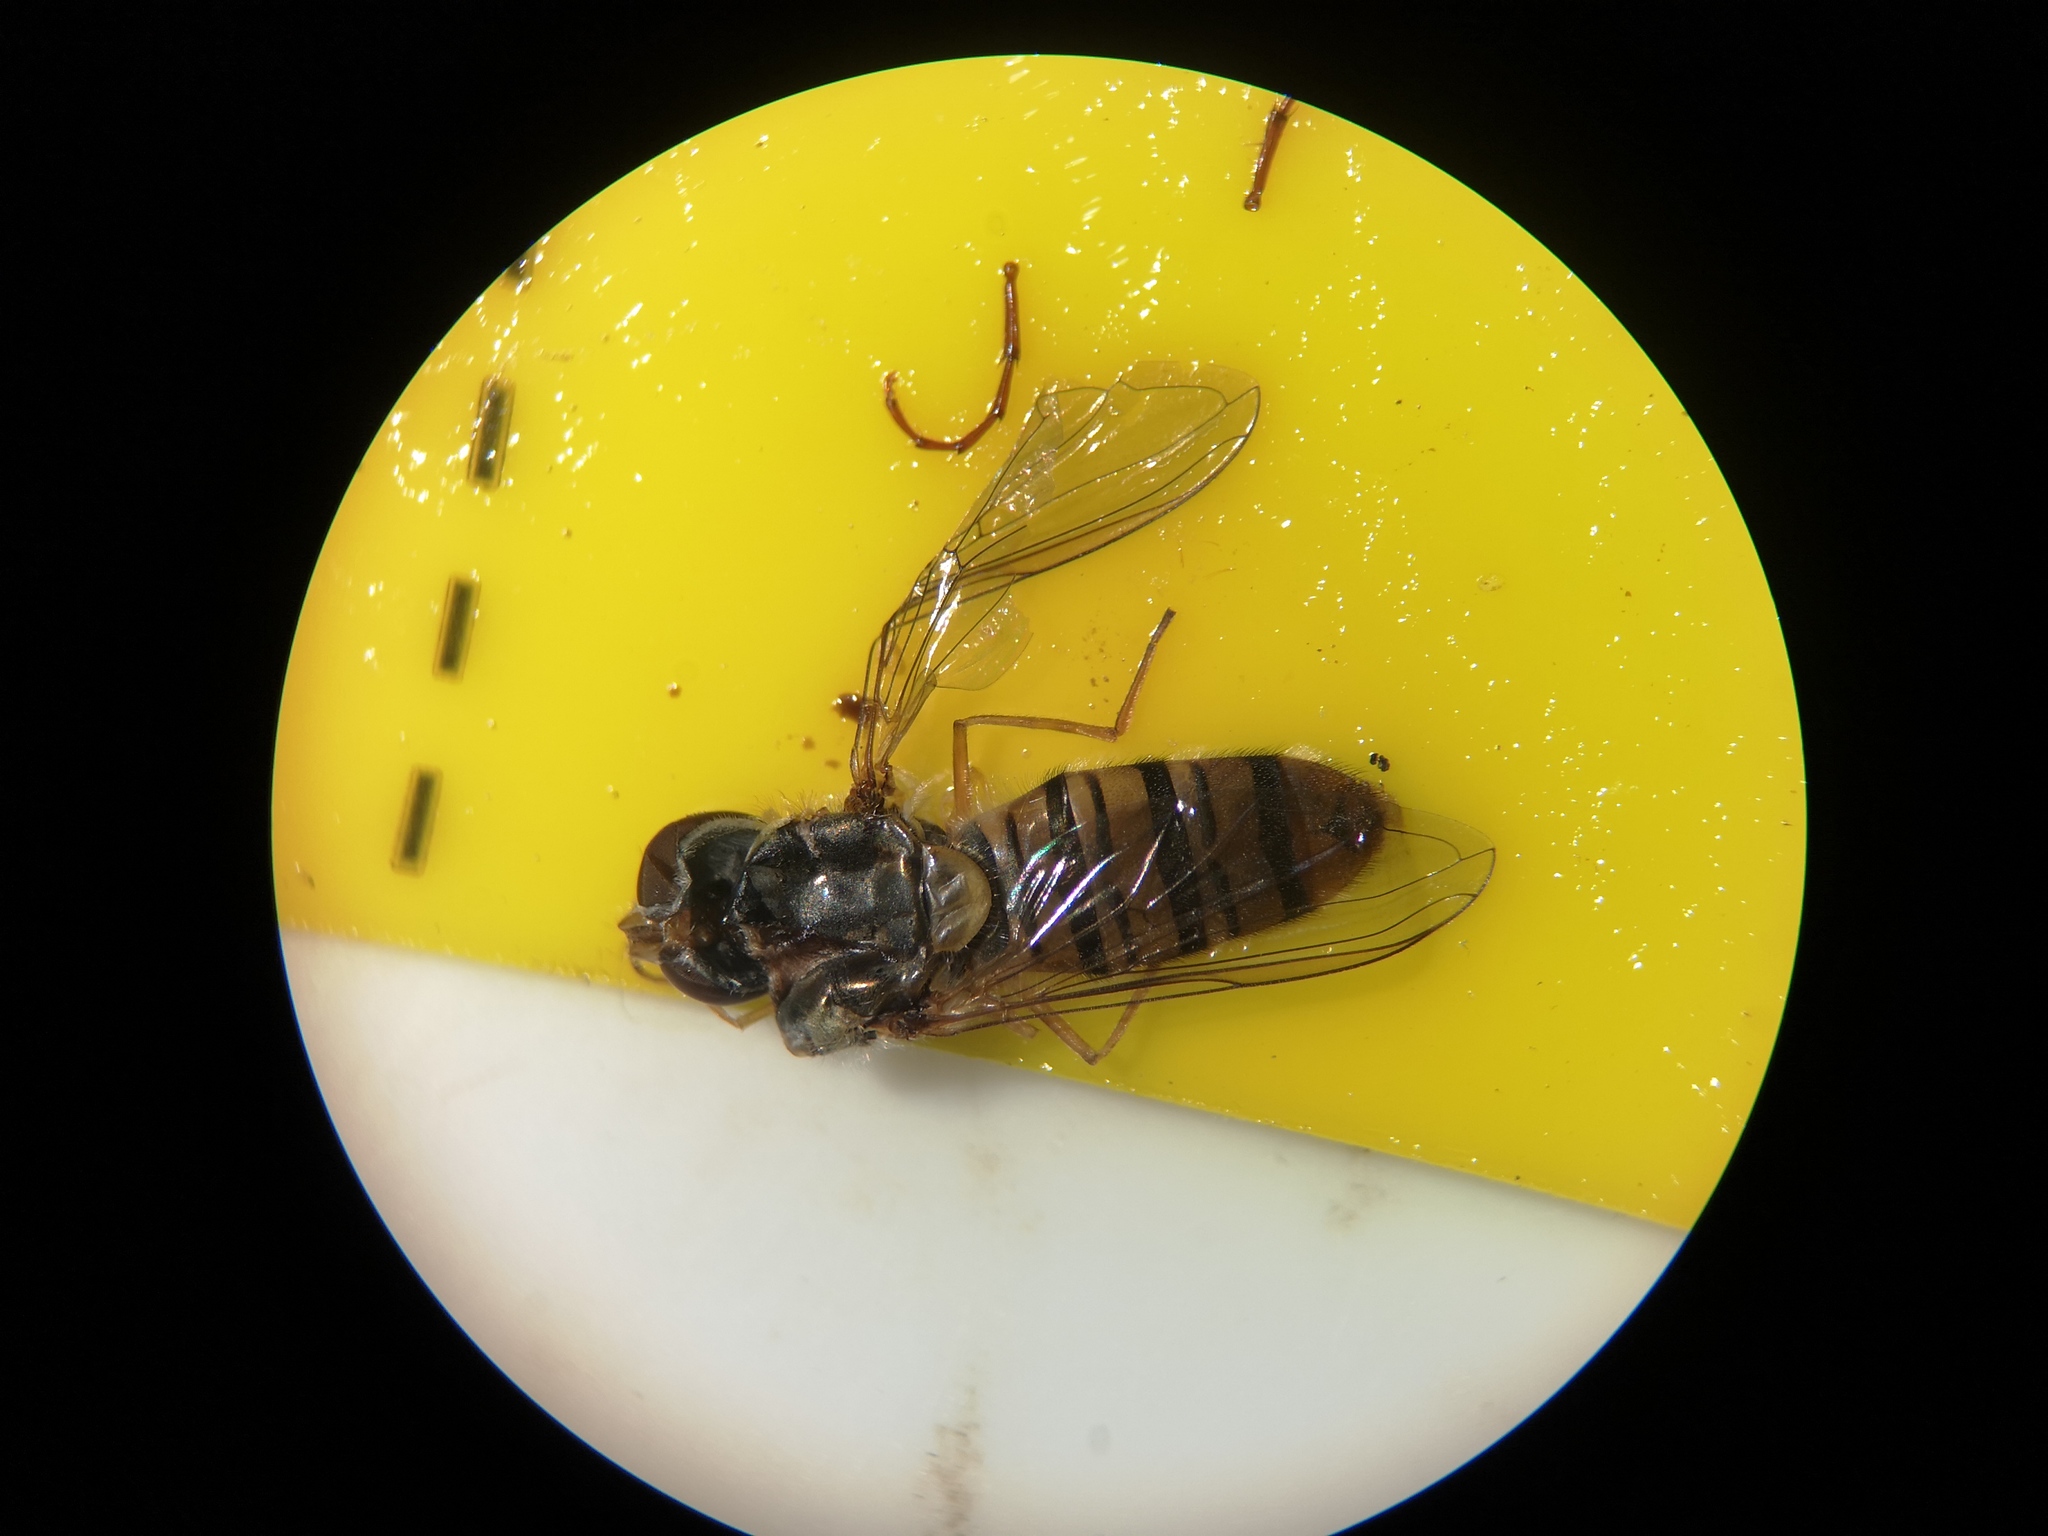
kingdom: Animalia
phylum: Arthropoda
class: Insecta
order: Diptera
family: Syrphidae
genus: Episyrphus
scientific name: Episyrphus balteatus
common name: Marmalade hoverfly
